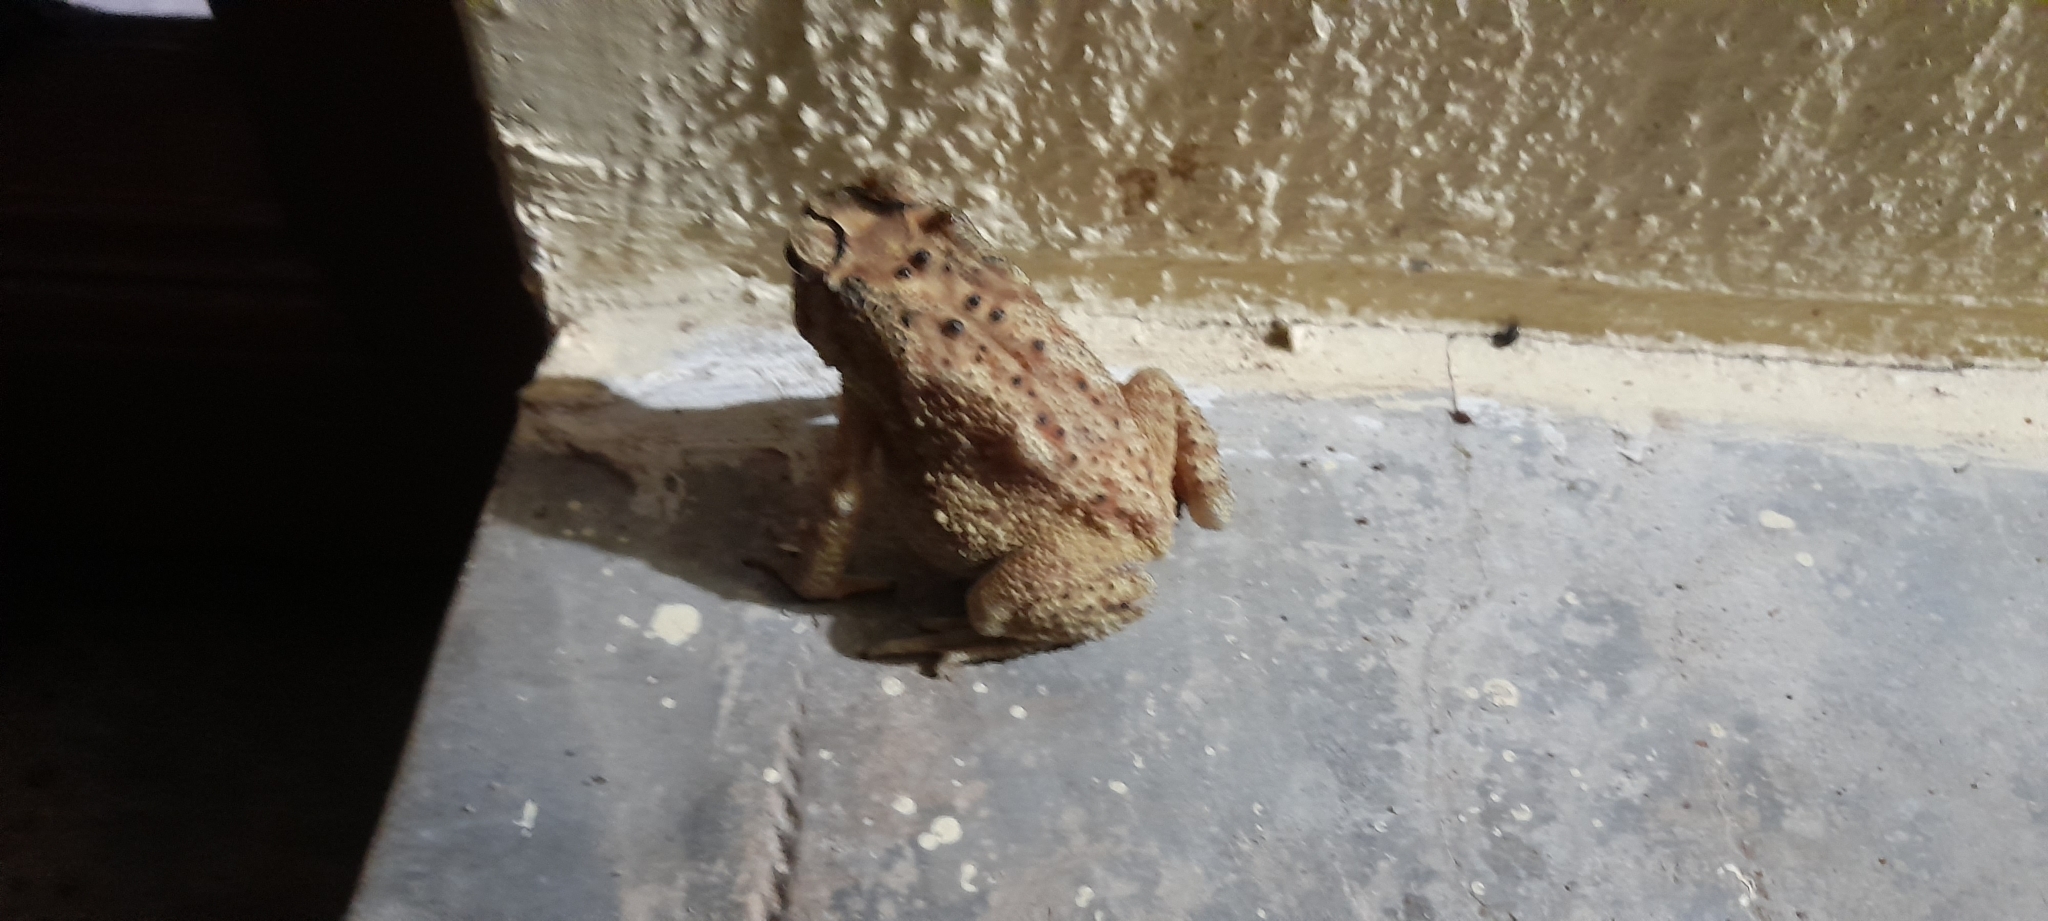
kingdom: Animalia
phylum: Chordata
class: Amphibia
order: Anura
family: Bufonidae
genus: Duttaphrynus
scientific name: Duttaphrynus melanostictus
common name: Common sunda toad
